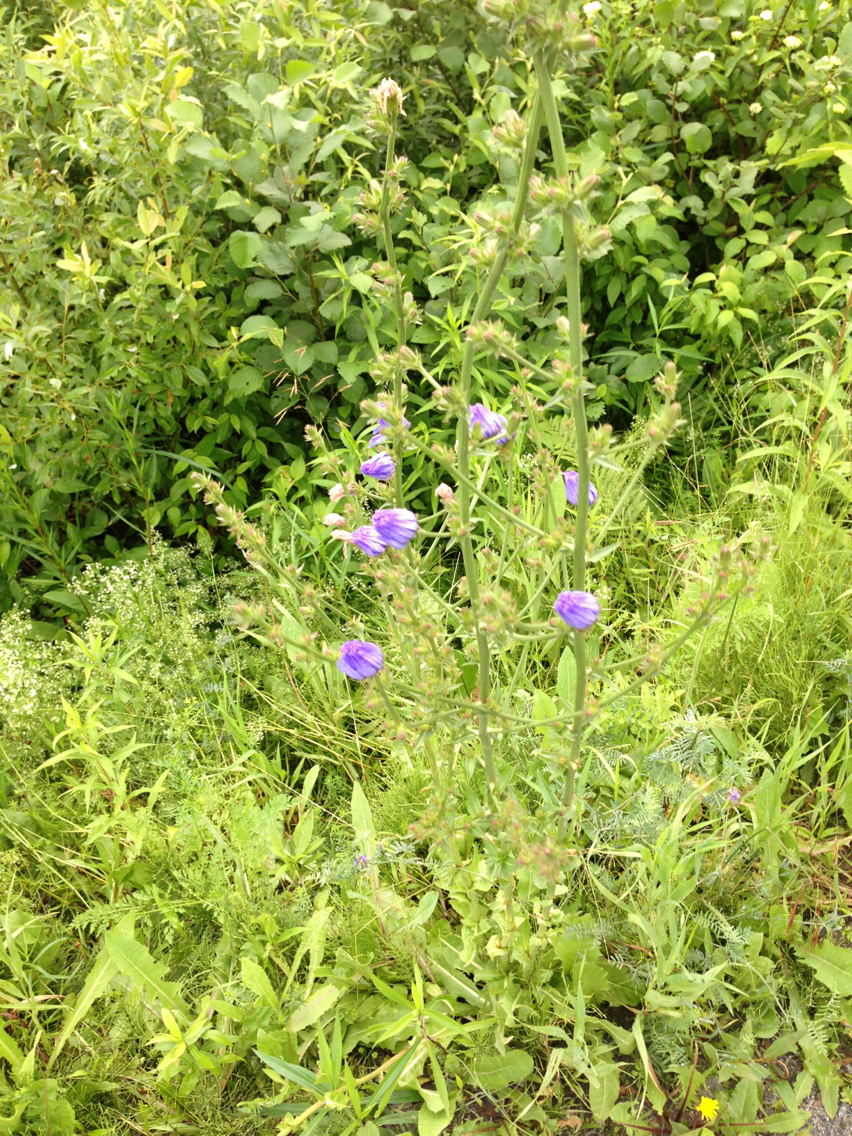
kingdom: Plantae
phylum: Tracheophyta
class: Magnoliopsida
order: Asterales
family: Asteraceae
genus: Cichorium
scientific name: Cichorium intybus
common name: Chicory
